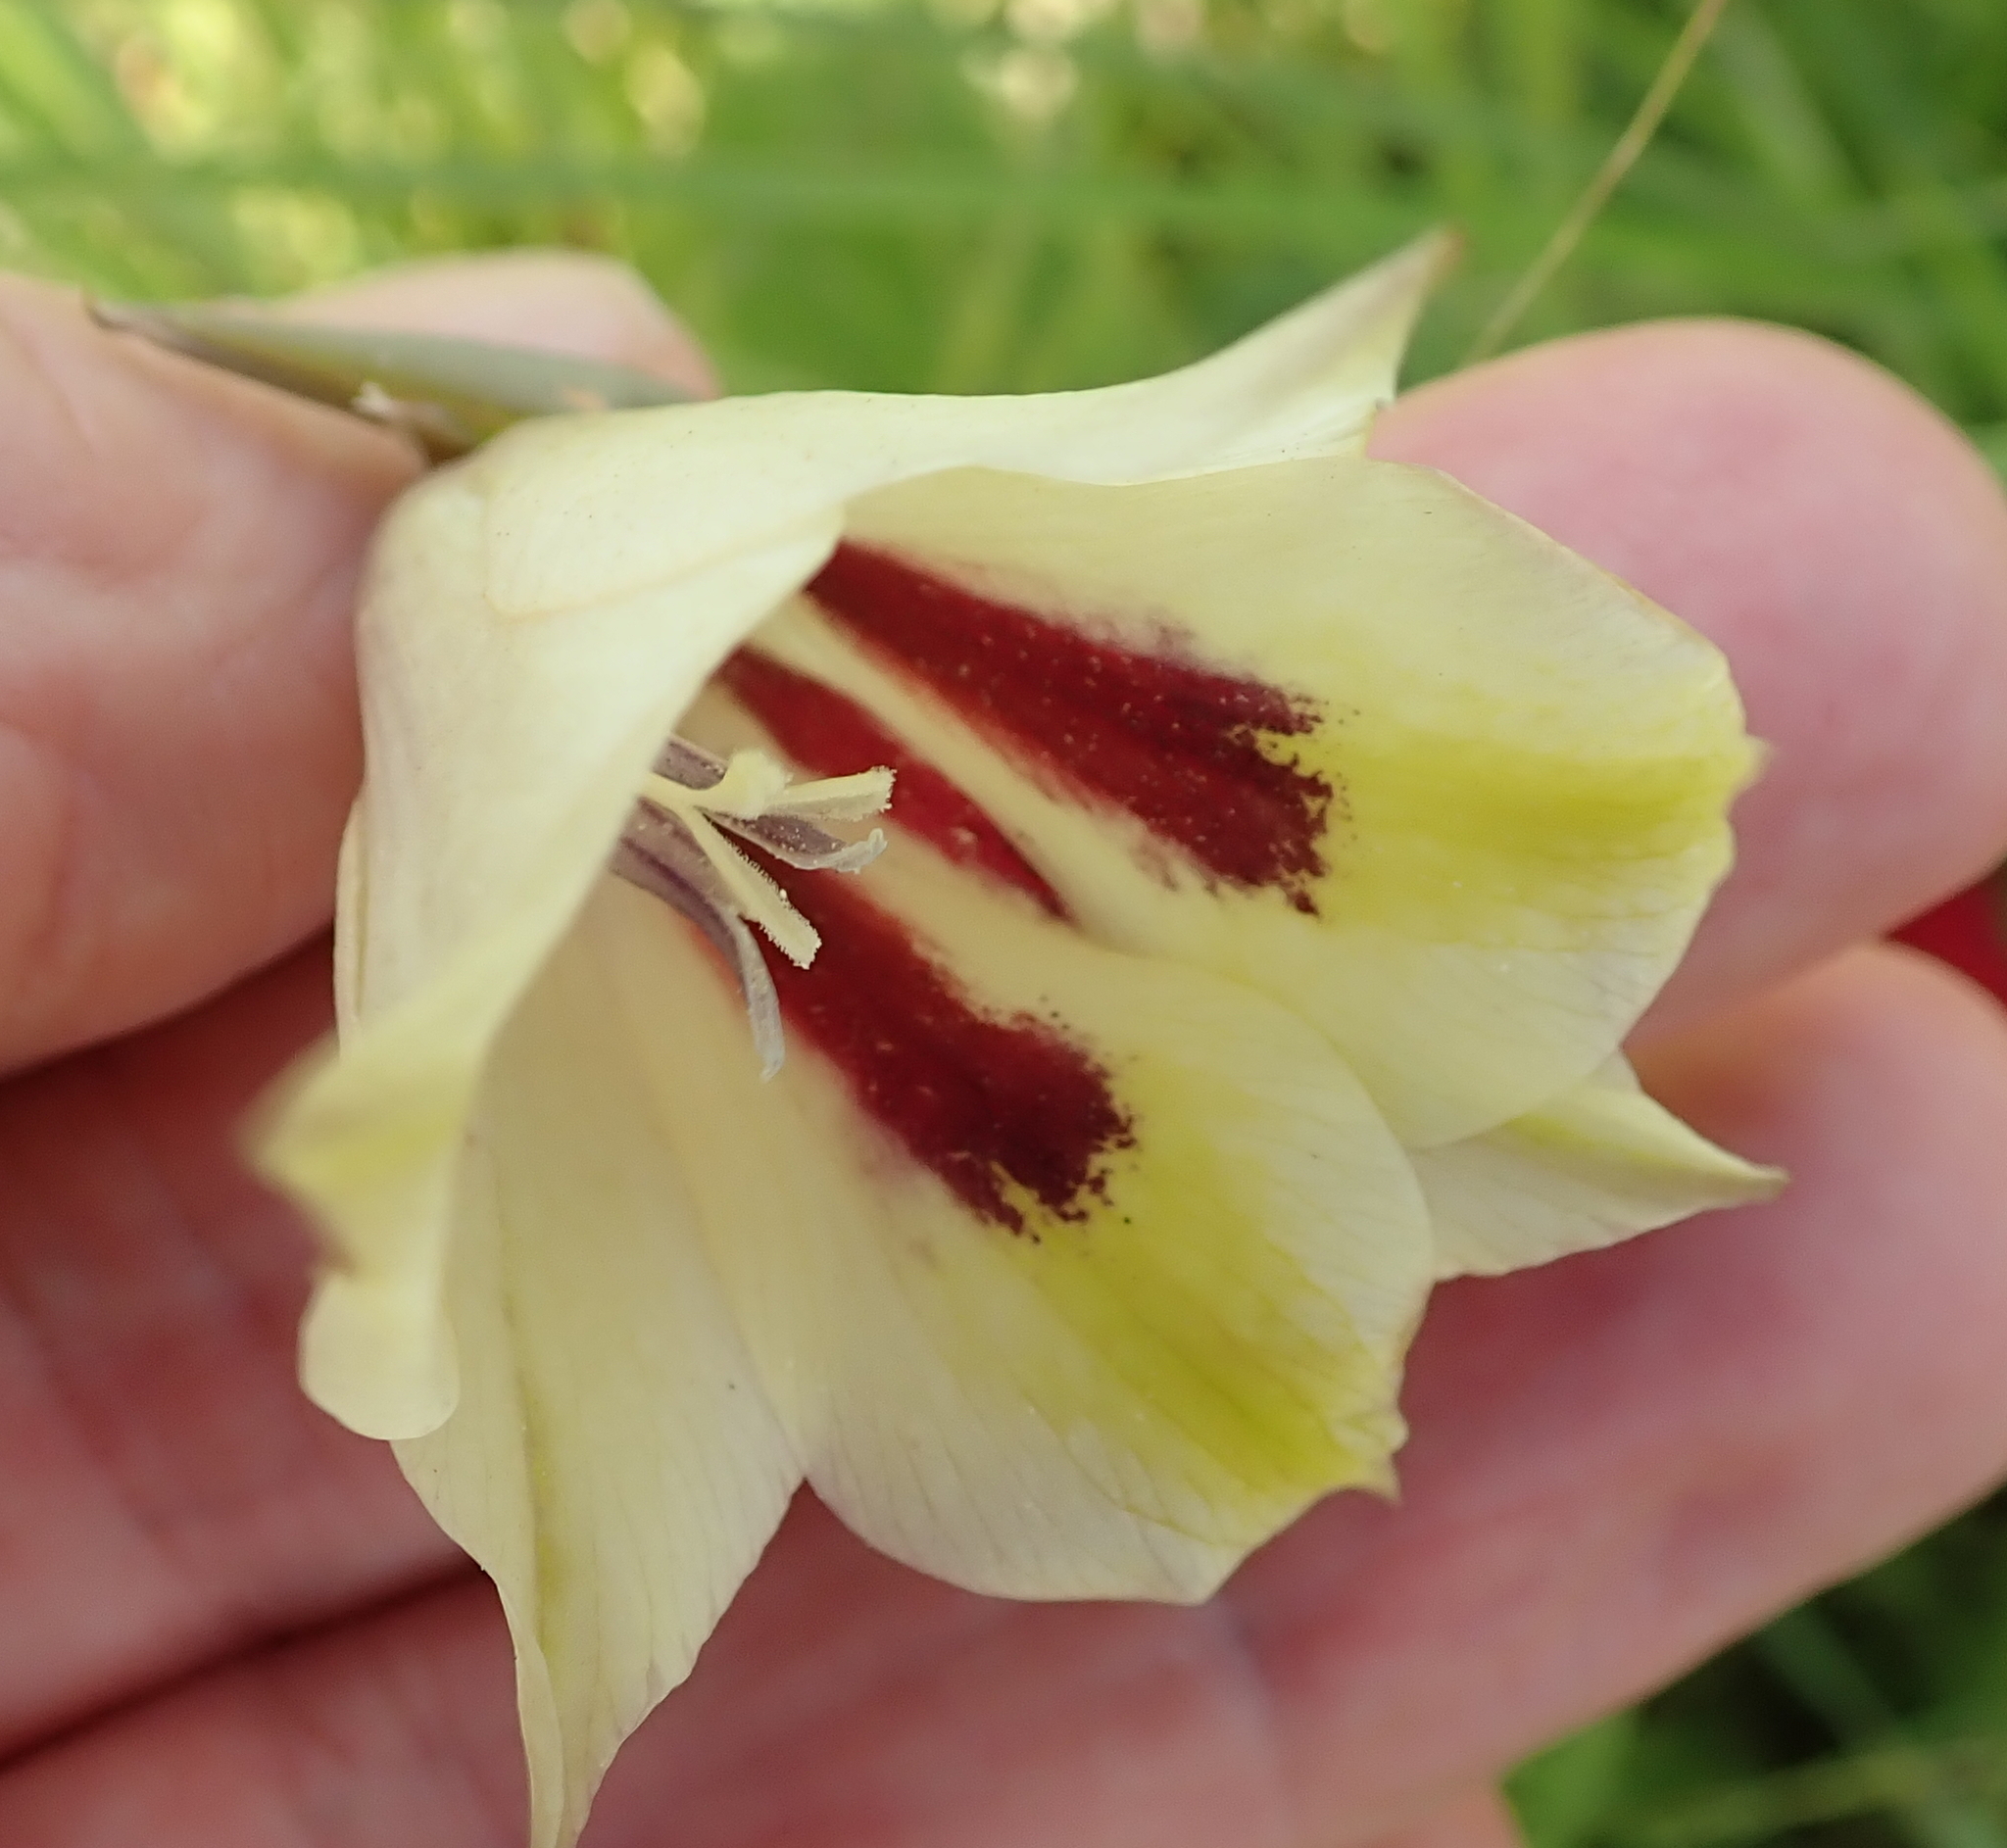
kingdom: Plantae
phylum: Tracheophyta
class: Liliopsida
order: Asparagales
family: Iridaceae
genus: Gladiolus
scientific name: Gladiolus papilio
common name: Goldblotch gladiolus
